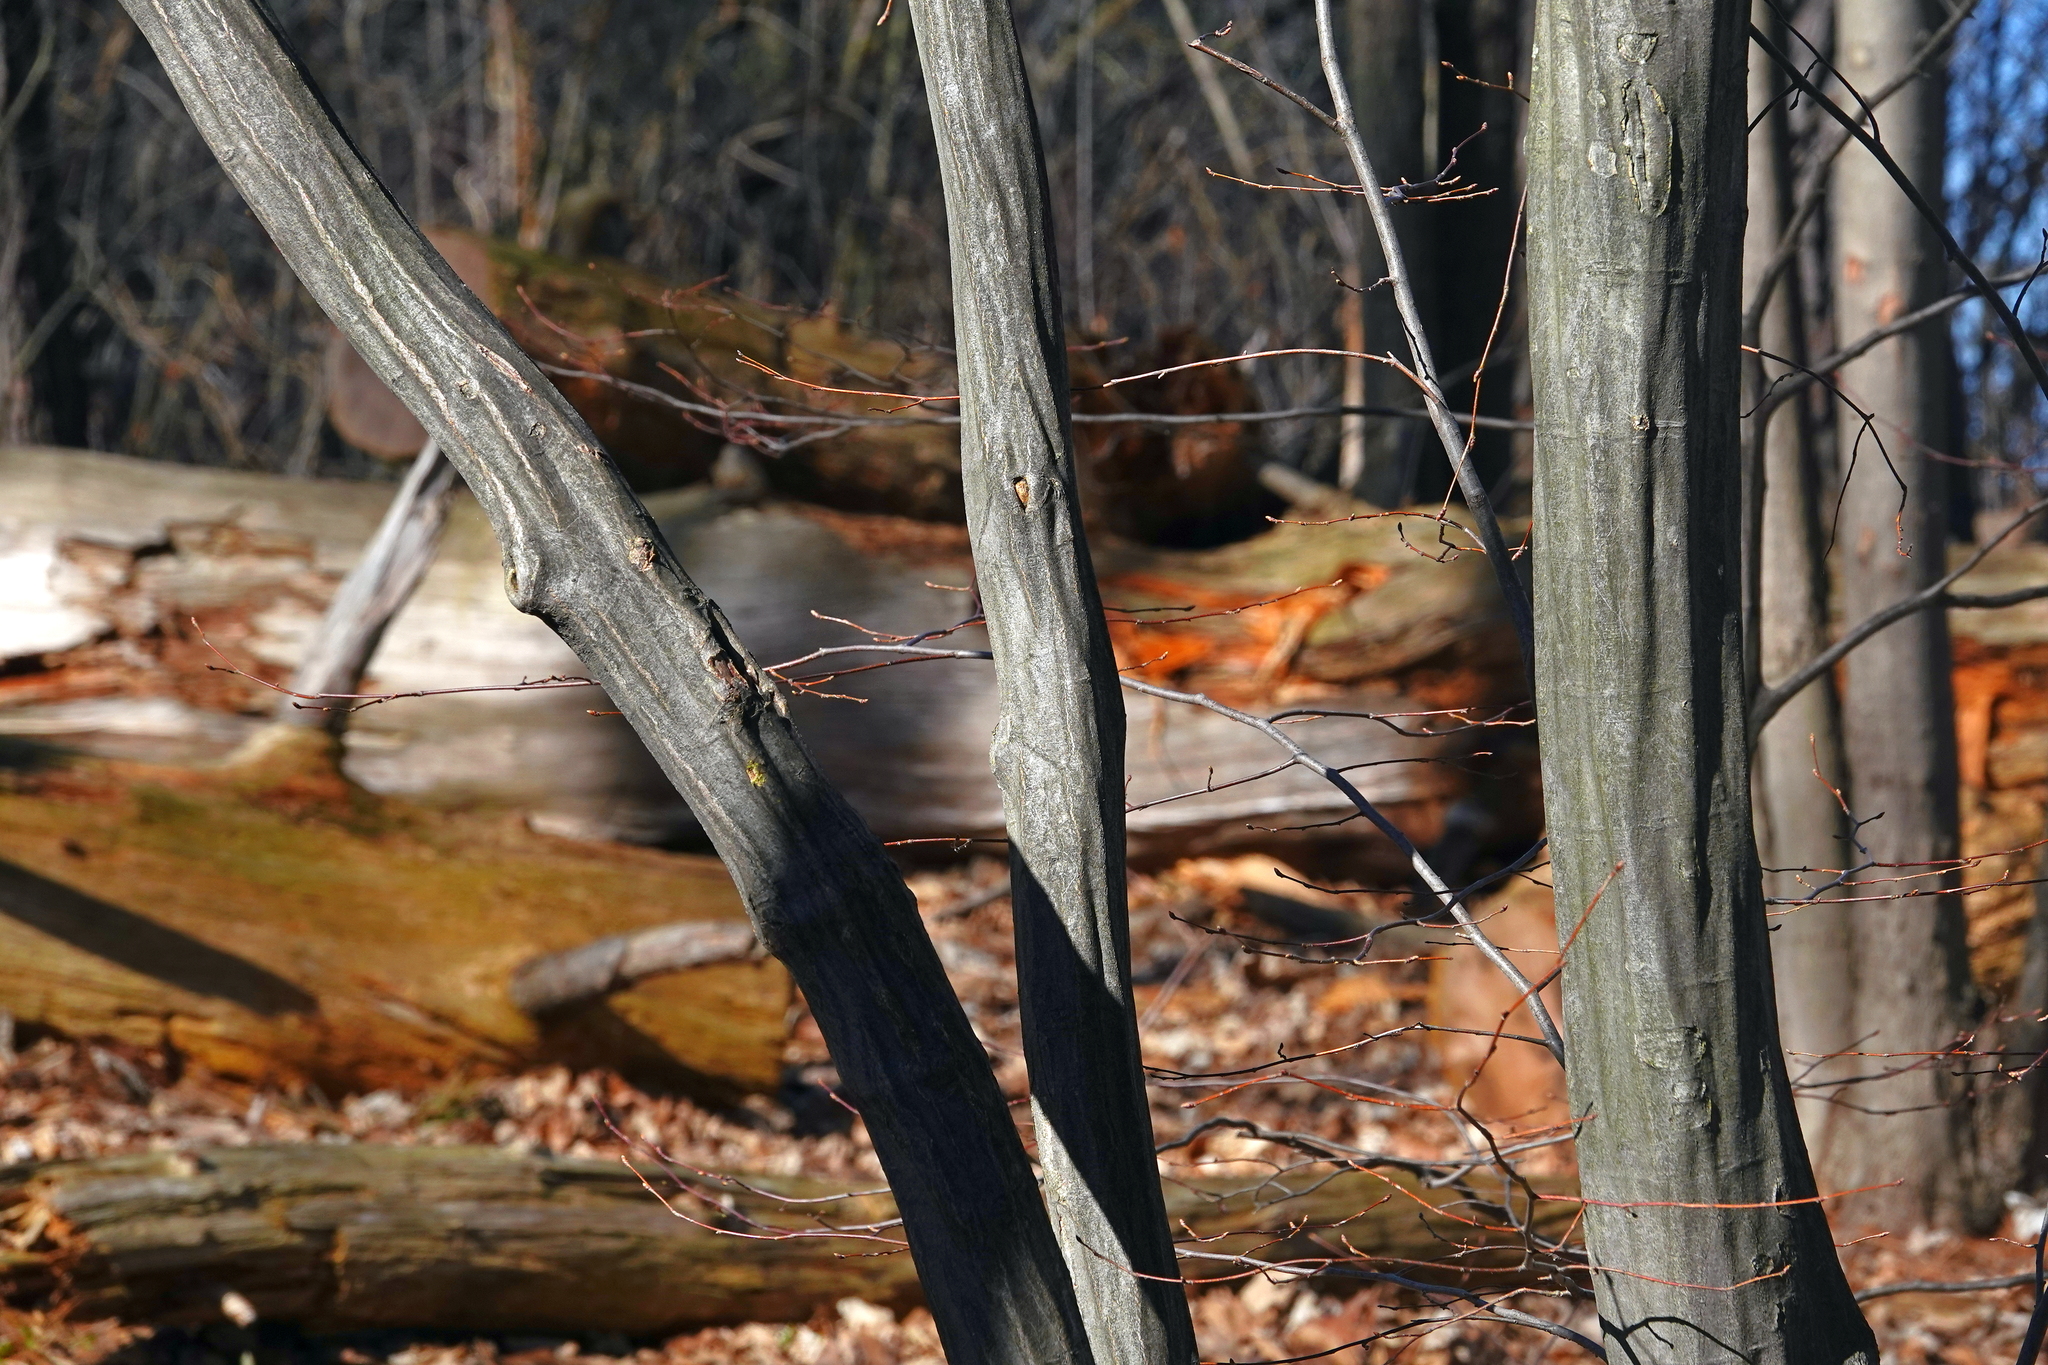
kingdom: Plantae
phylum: Tracheophyta
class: Magnoliopsida
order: Fagales
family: Betulaceae
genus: Carpinus
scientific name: Carpinus caroliniana
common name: American hornbeam
